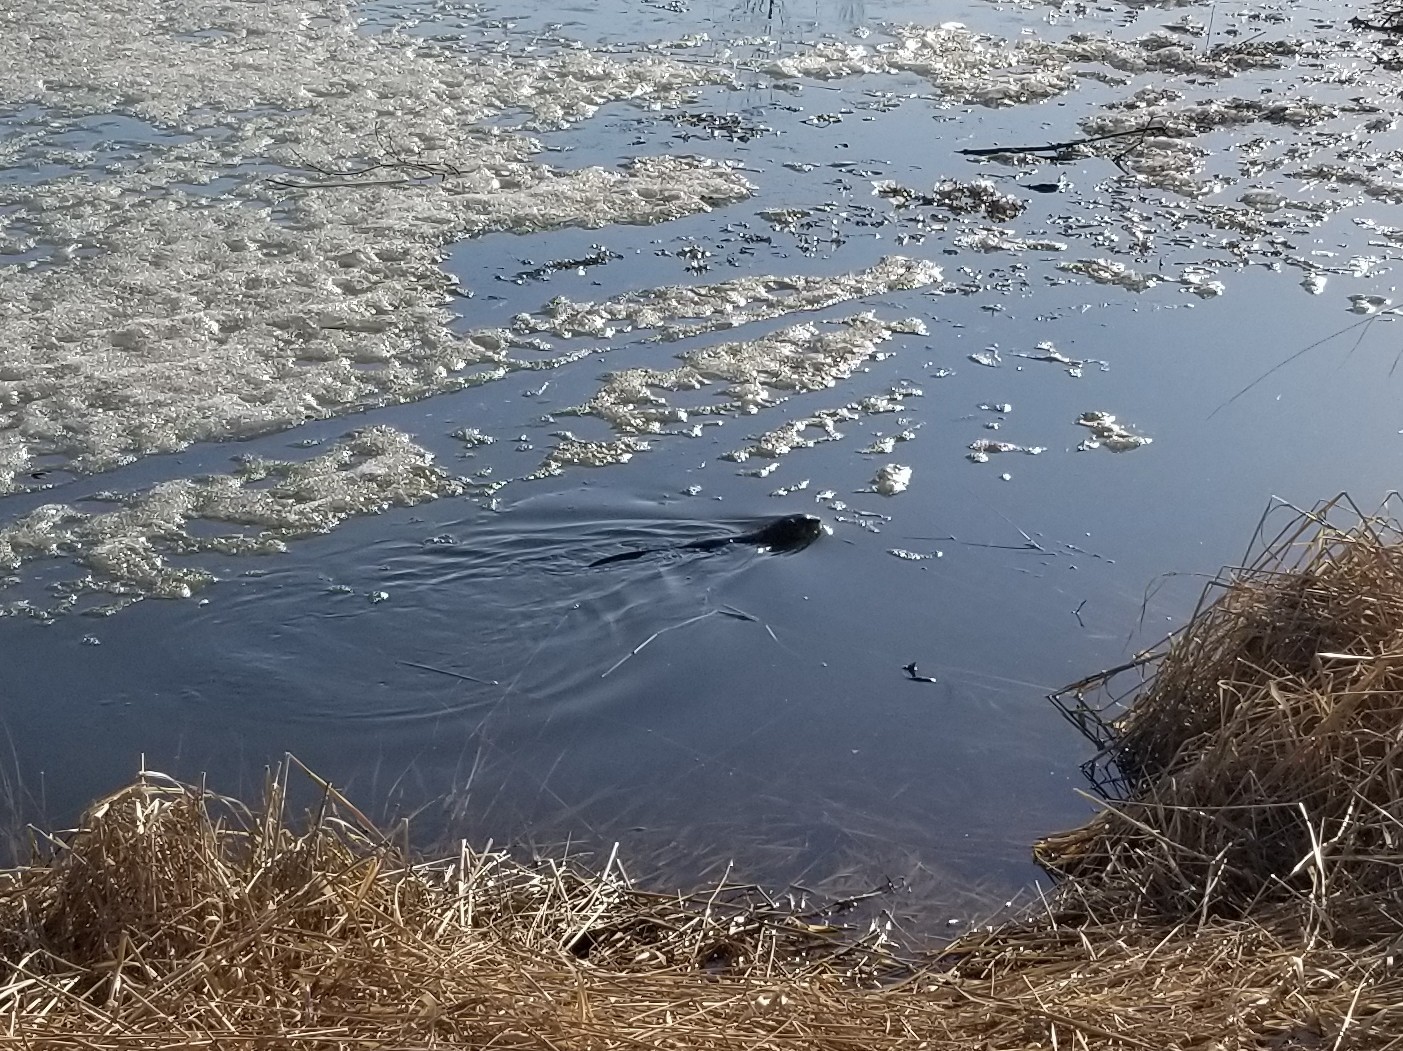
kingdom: Animalia
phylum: Chordata
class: Mammalia
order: Rodentia
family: Cricetidae
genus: Ondatra
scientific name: Ondatra zibethicus
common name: Muskrat
